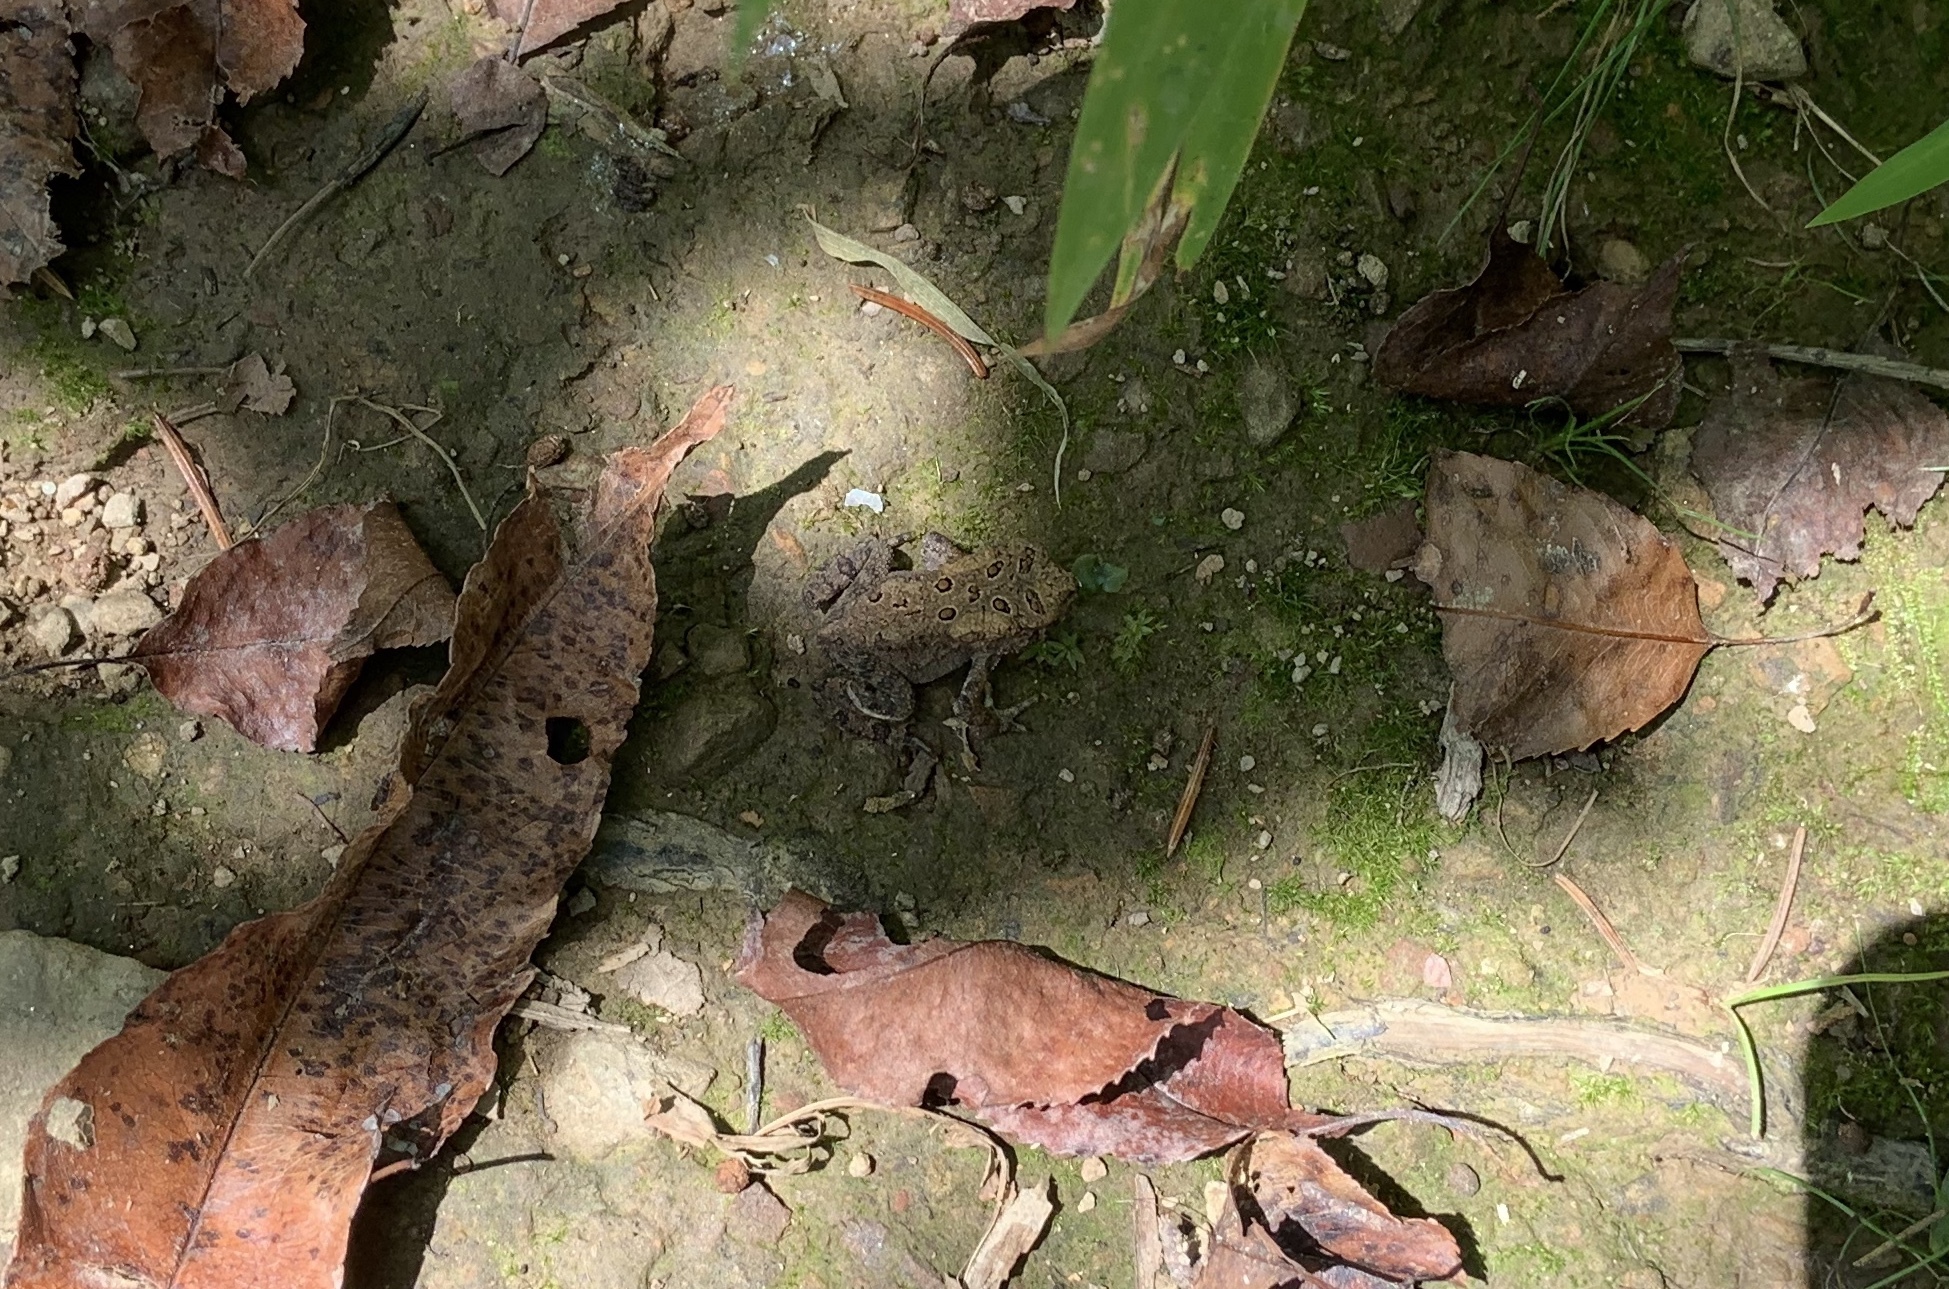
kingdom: Animalia
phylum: Chordata
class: Amphibia
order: Anura
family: Bufonidae
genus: Anaxyrus
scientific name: Anaxyrus americanus
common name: American toad
